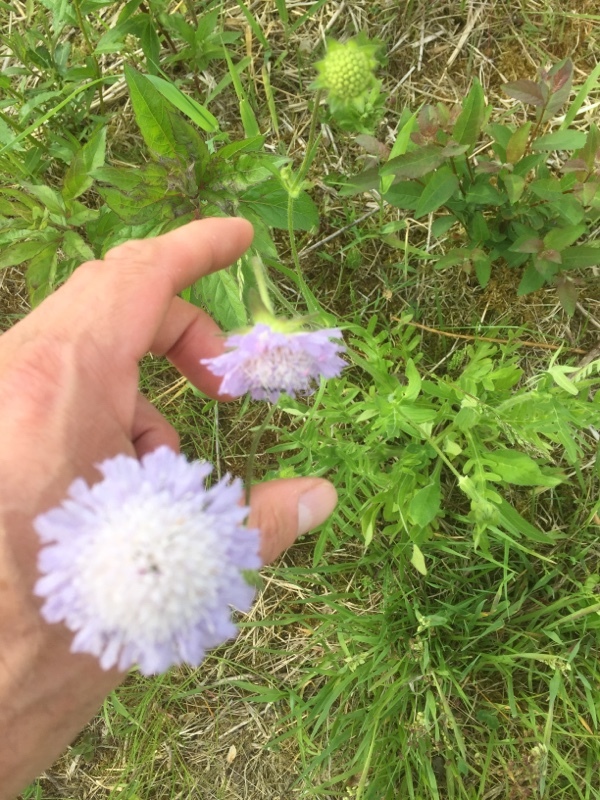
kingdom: Plantae
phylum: Tracheophyta
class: Magnoliopsida
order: Dipsacales
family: Caprifoliaceae
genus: Knautia
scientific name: Knautia arvensis
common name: Field scabiosa
